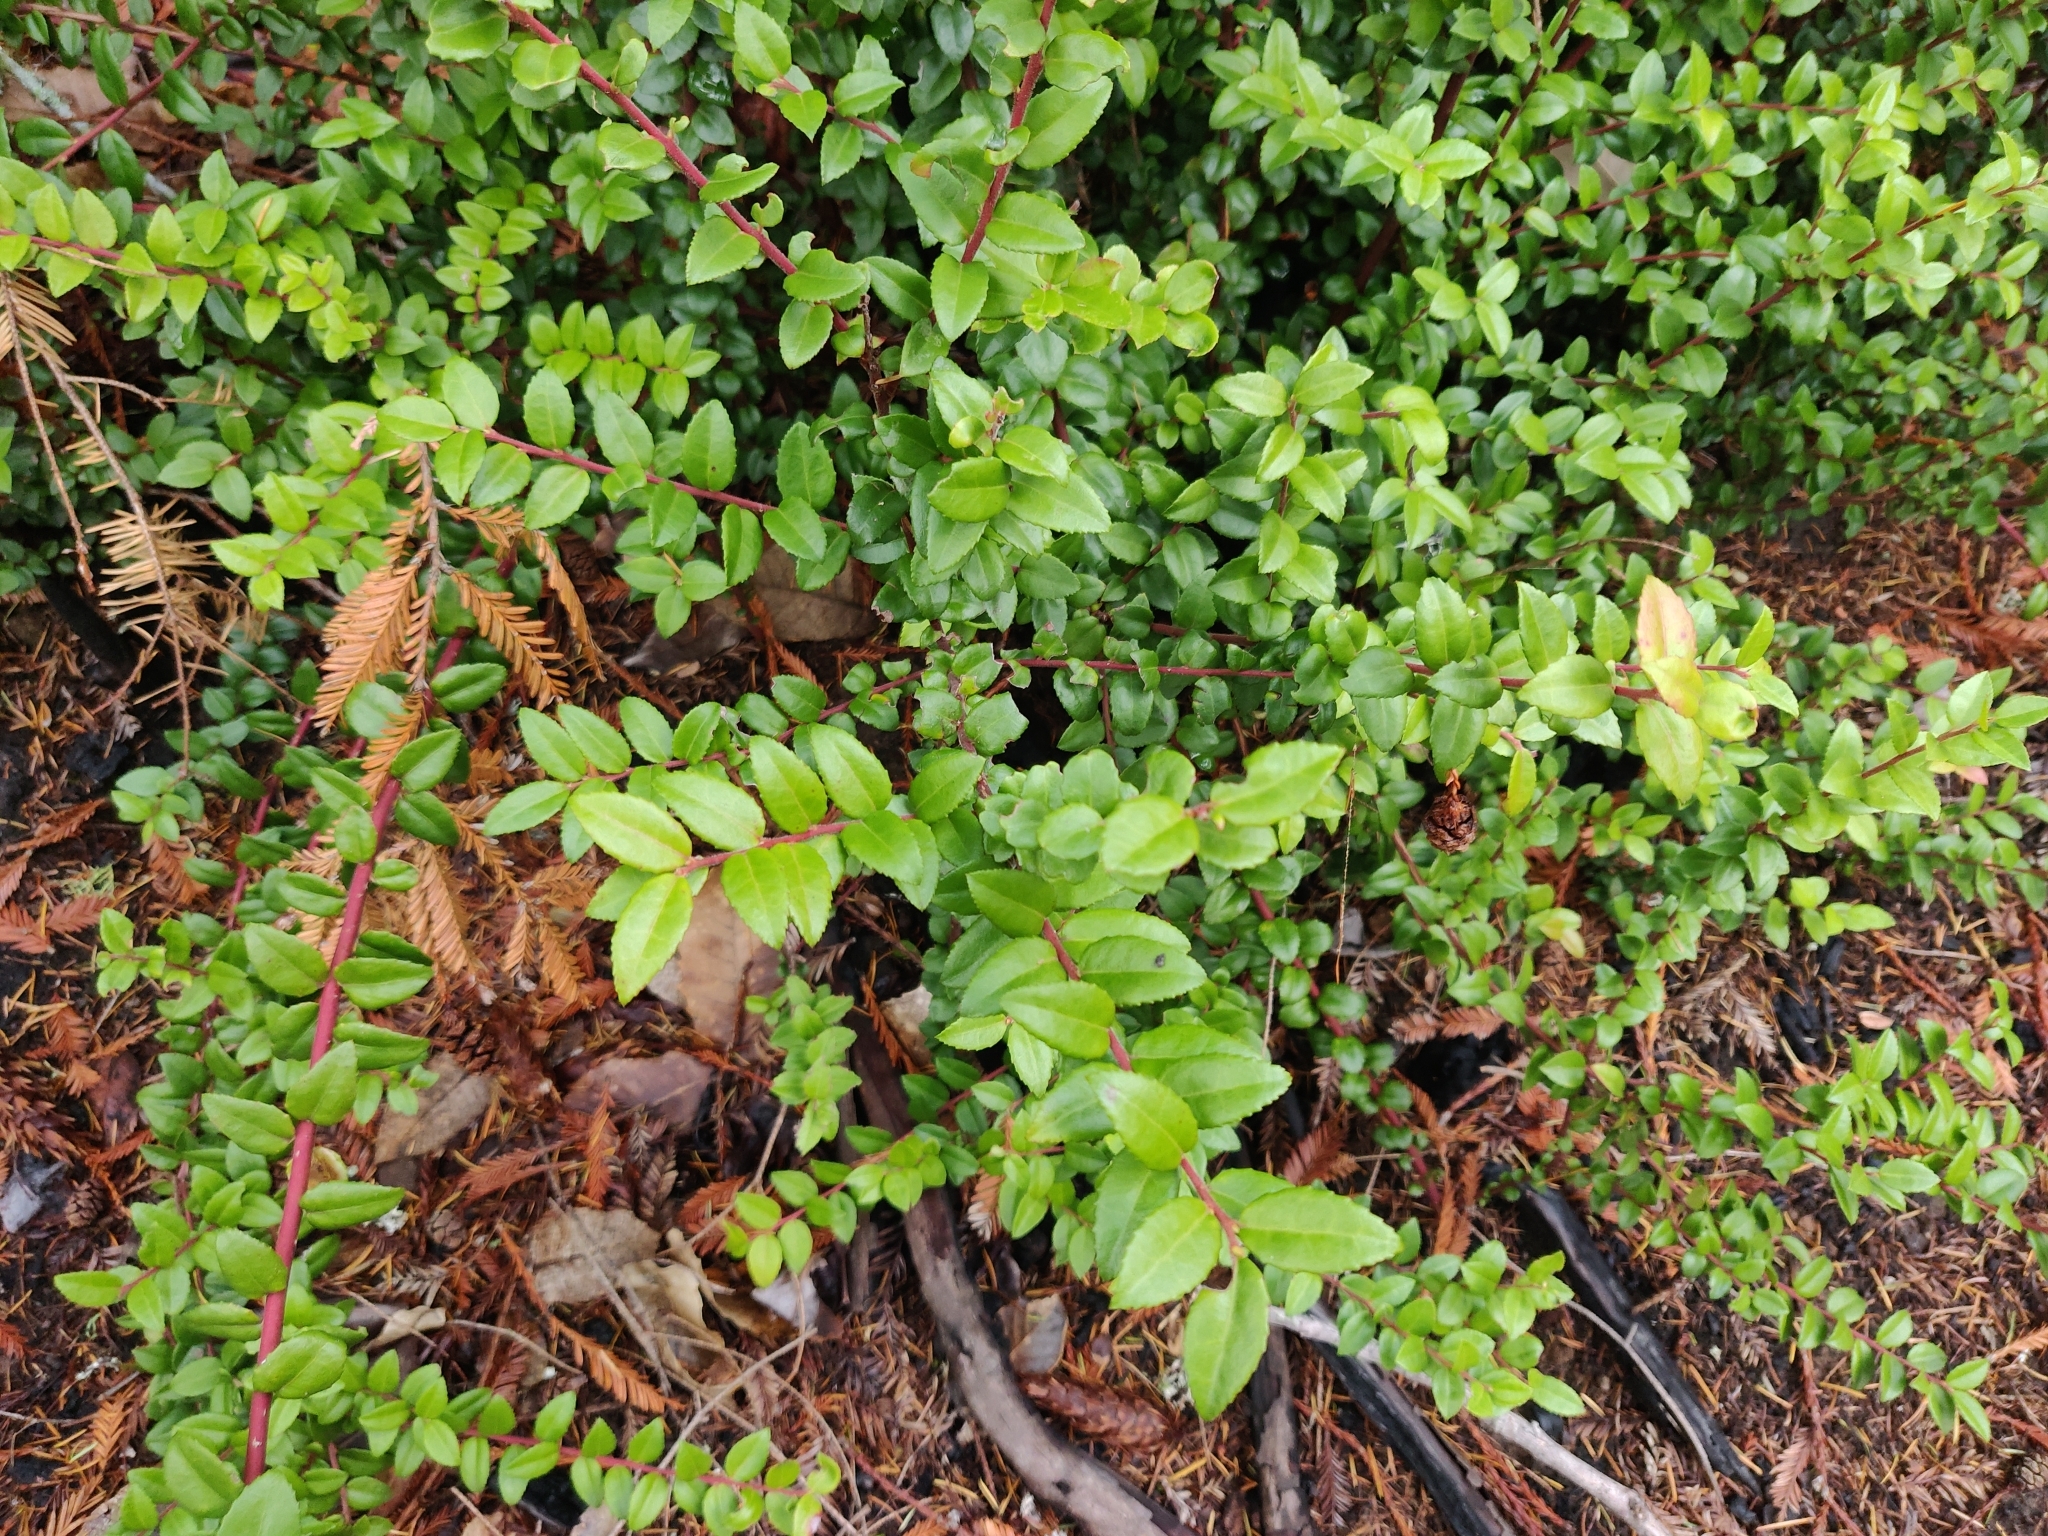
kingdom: Plantae
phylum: Tracheophyta
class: Magnoliopsida
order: Ericales
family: Ericaceae
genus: Vaccinium
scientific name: Vaccinium ovatum
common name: California-huckleberry
